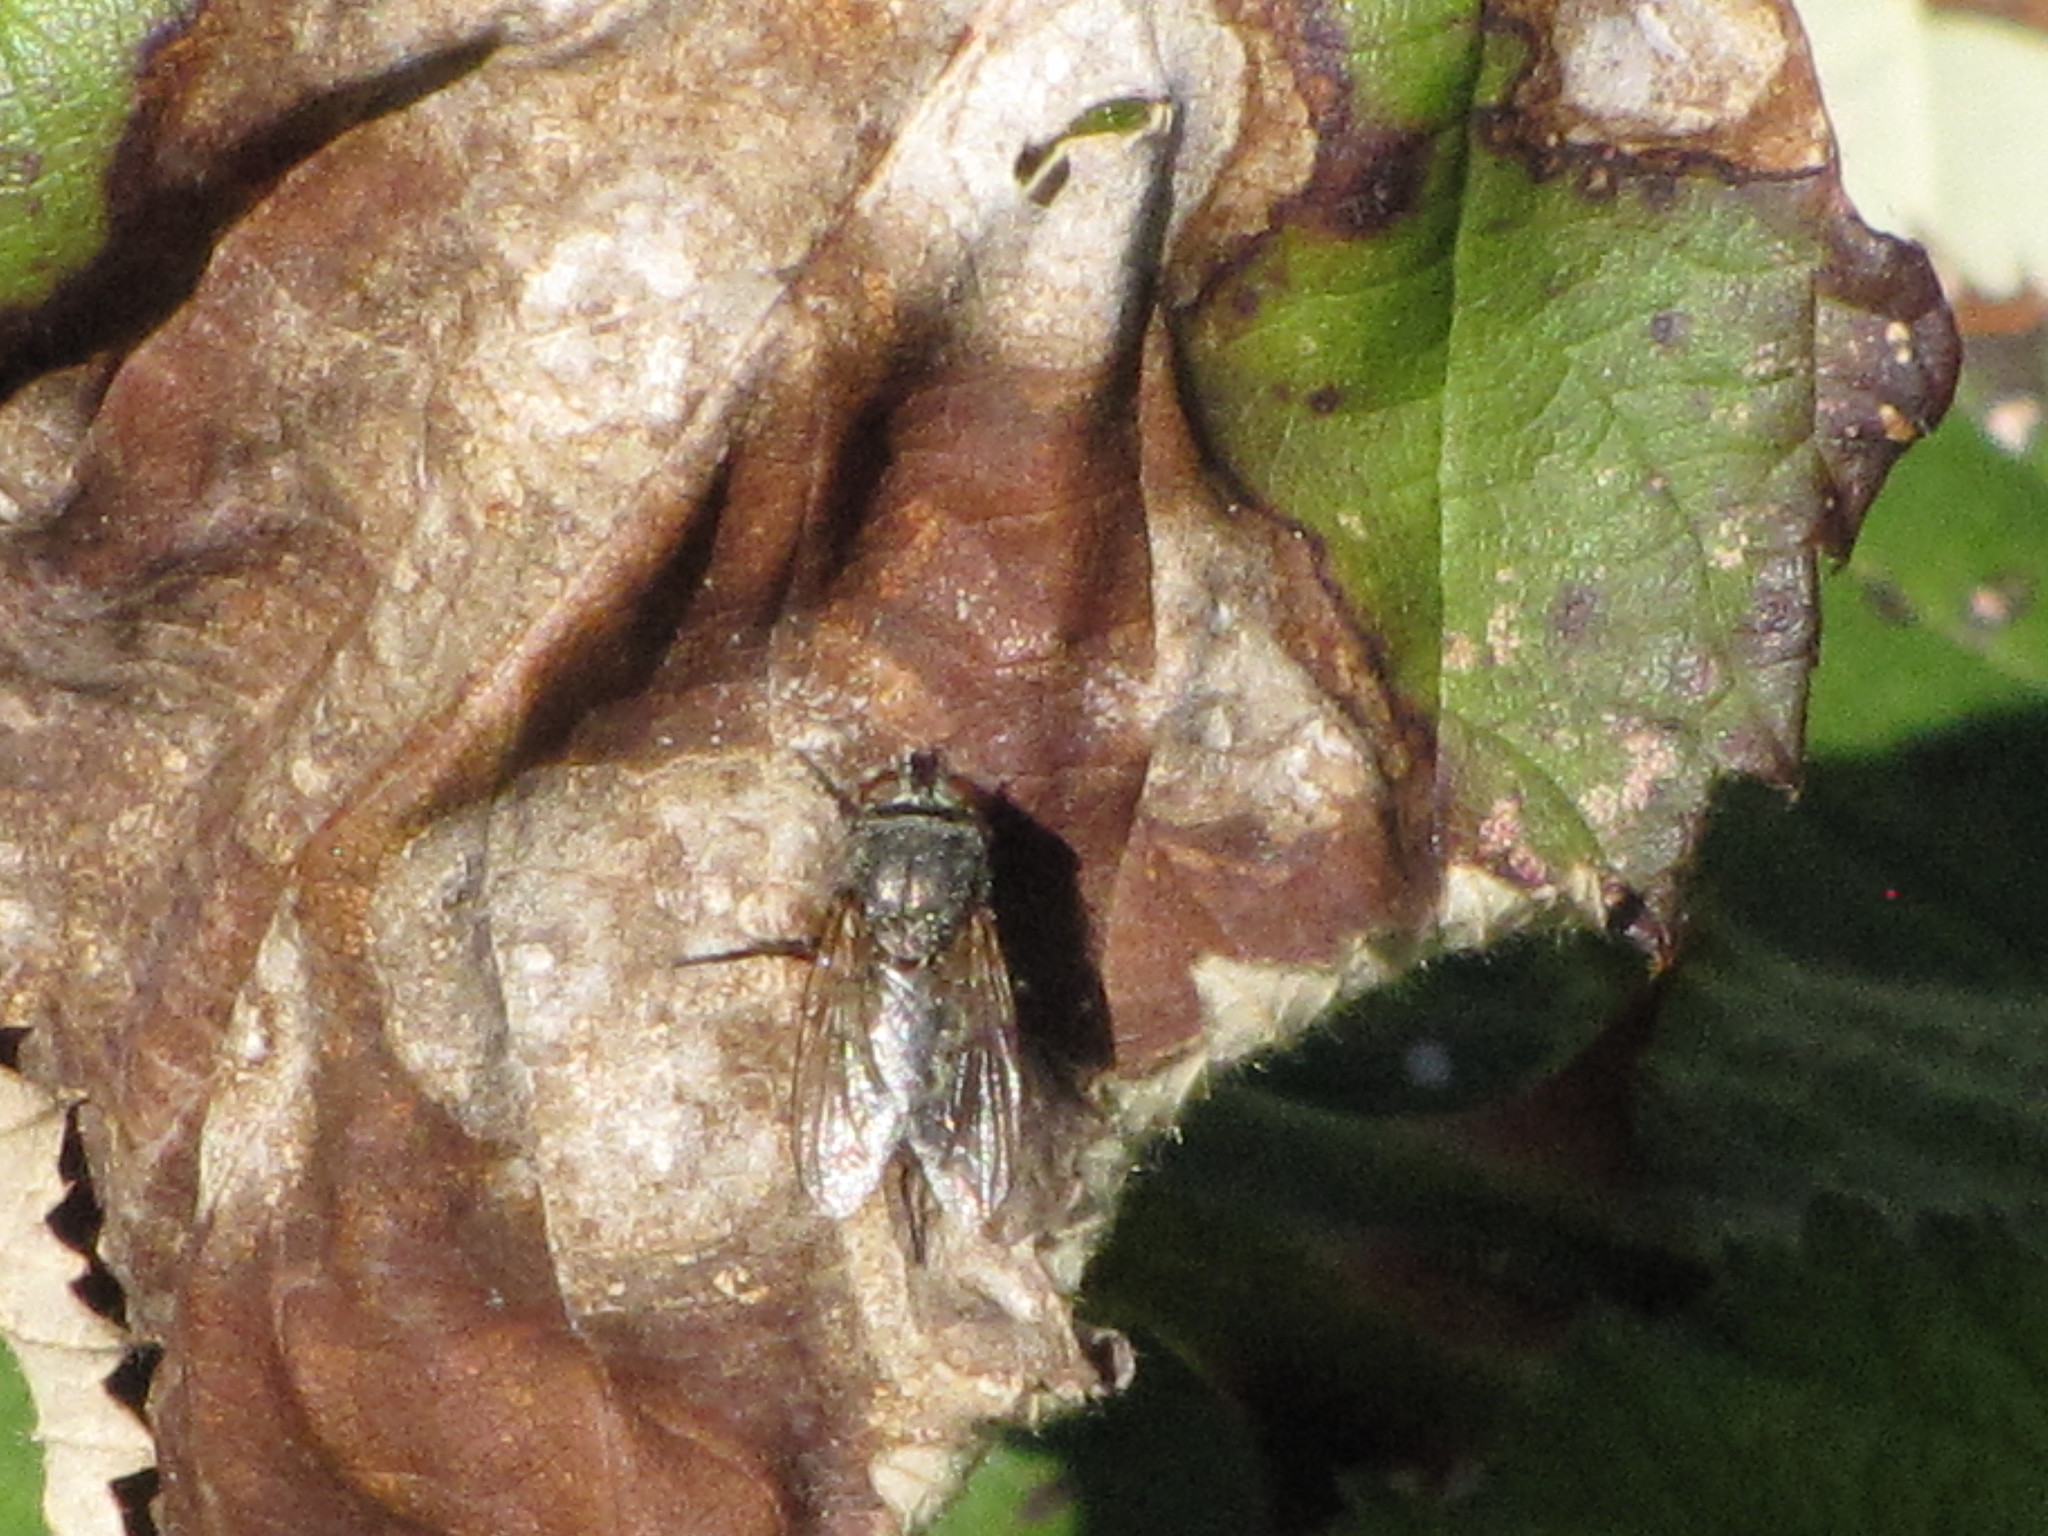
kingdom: Animalia
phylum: Arthropoda
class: Insecta
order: Diptera
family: Polleniidae
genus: Pollenia
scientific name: Pollenia
